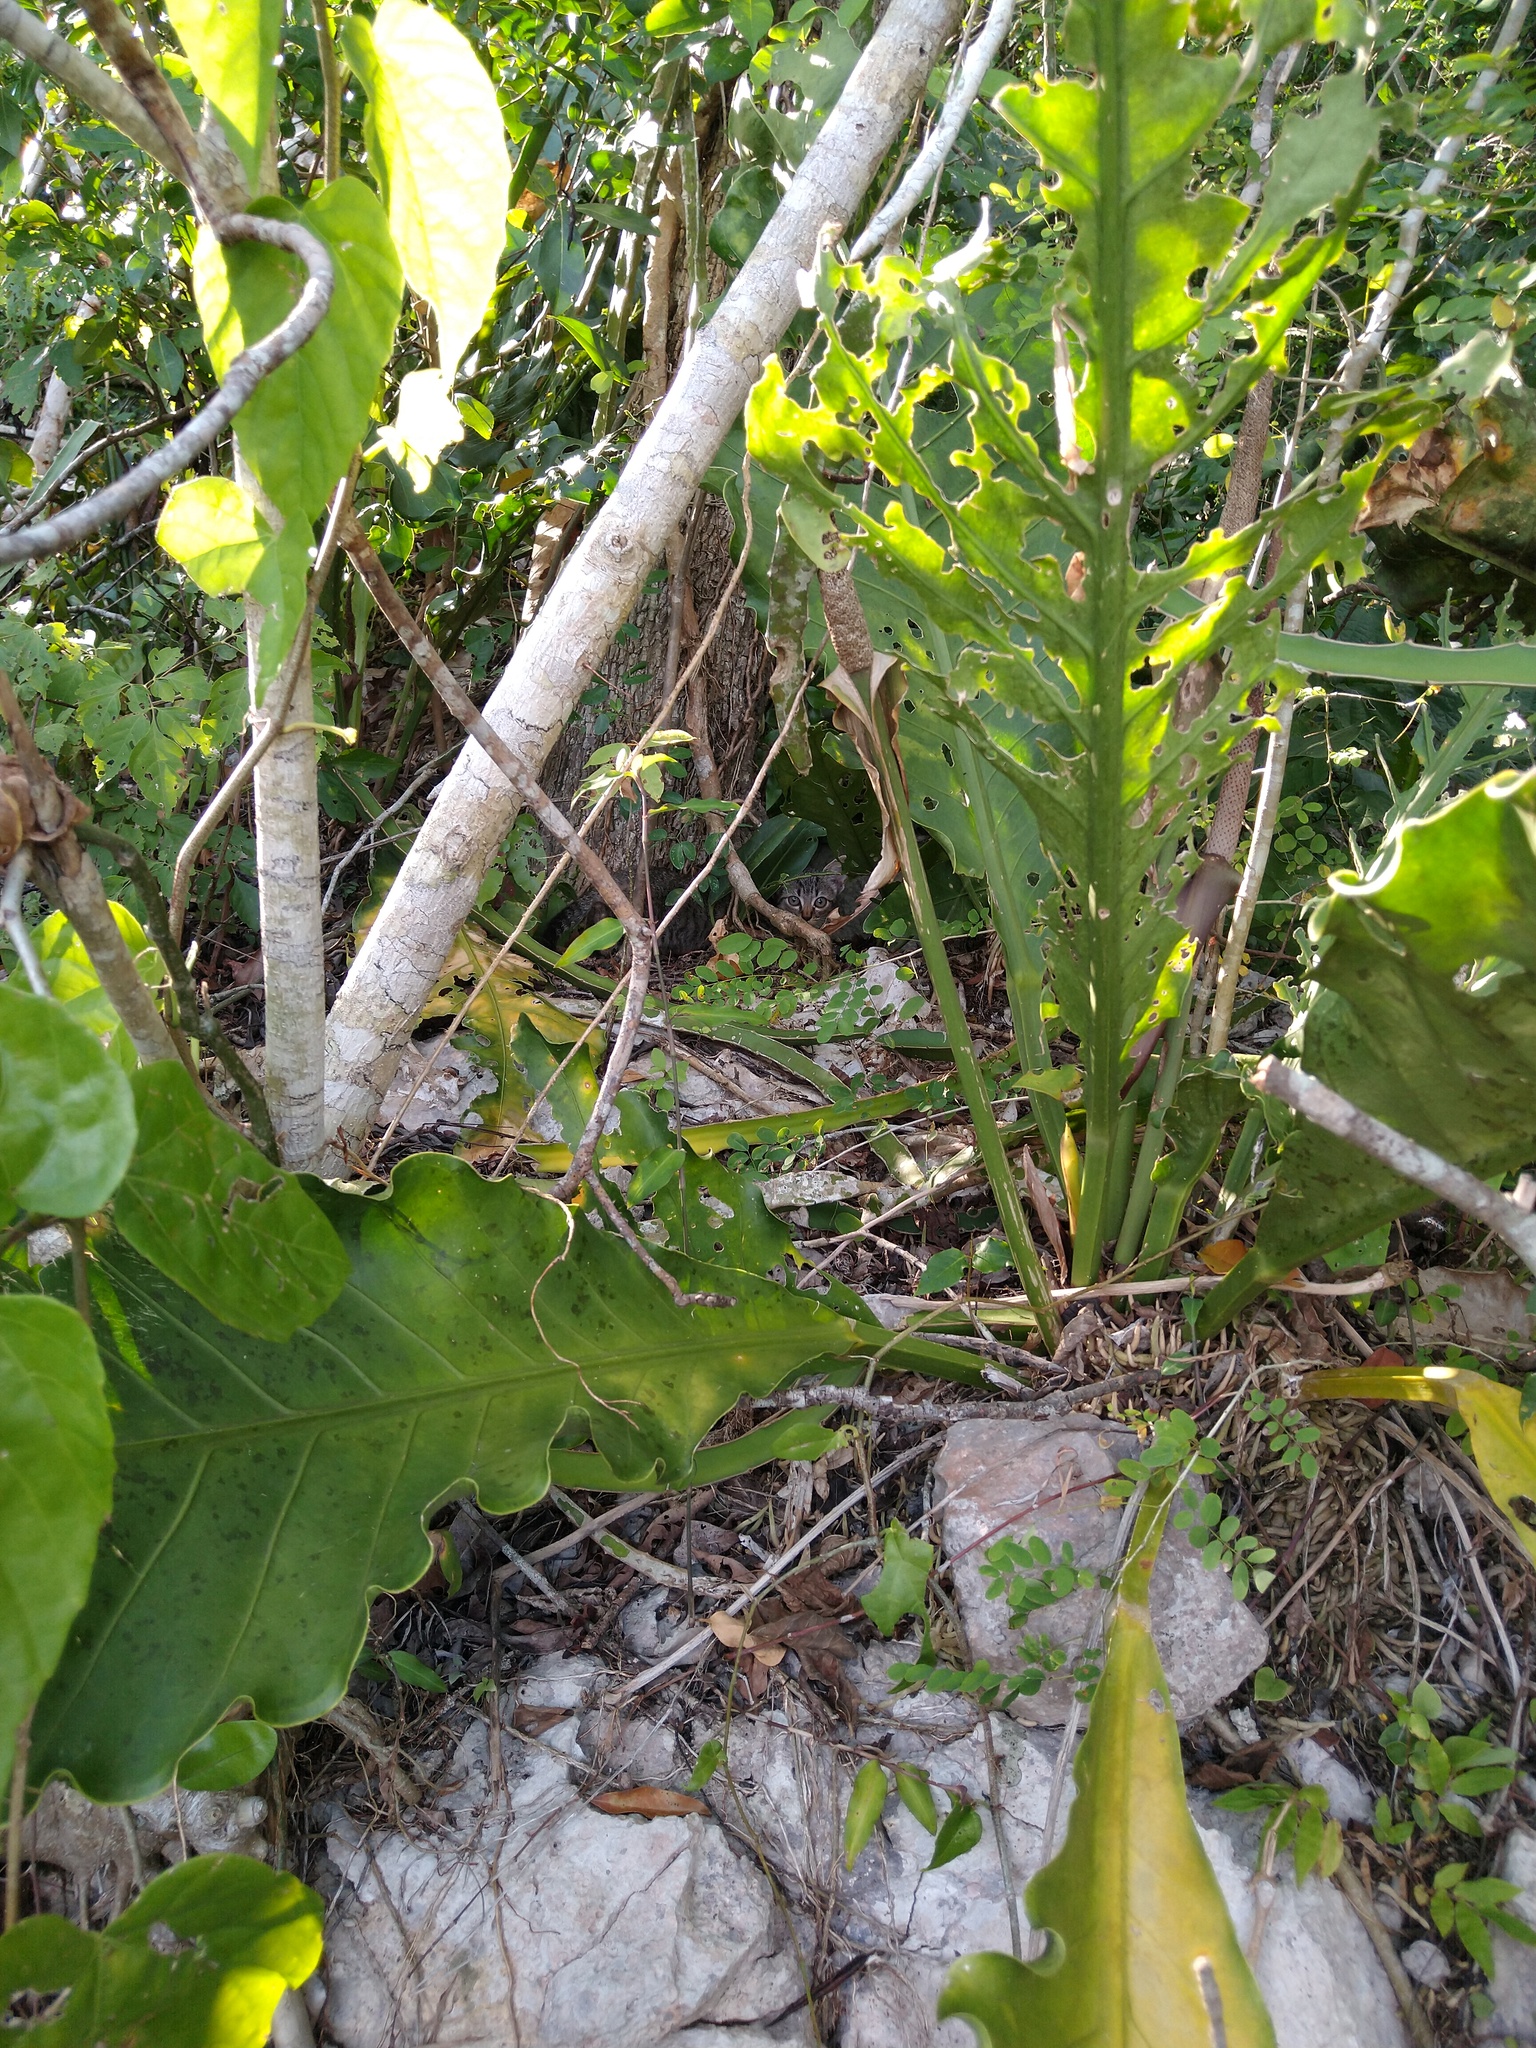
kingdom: Plantae
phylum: Tracheophyta
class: Liliopsida
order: Alismatales
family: Araceae
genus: Anthurium
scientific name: Anthurium schlechtendalii
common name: Laceleaf
